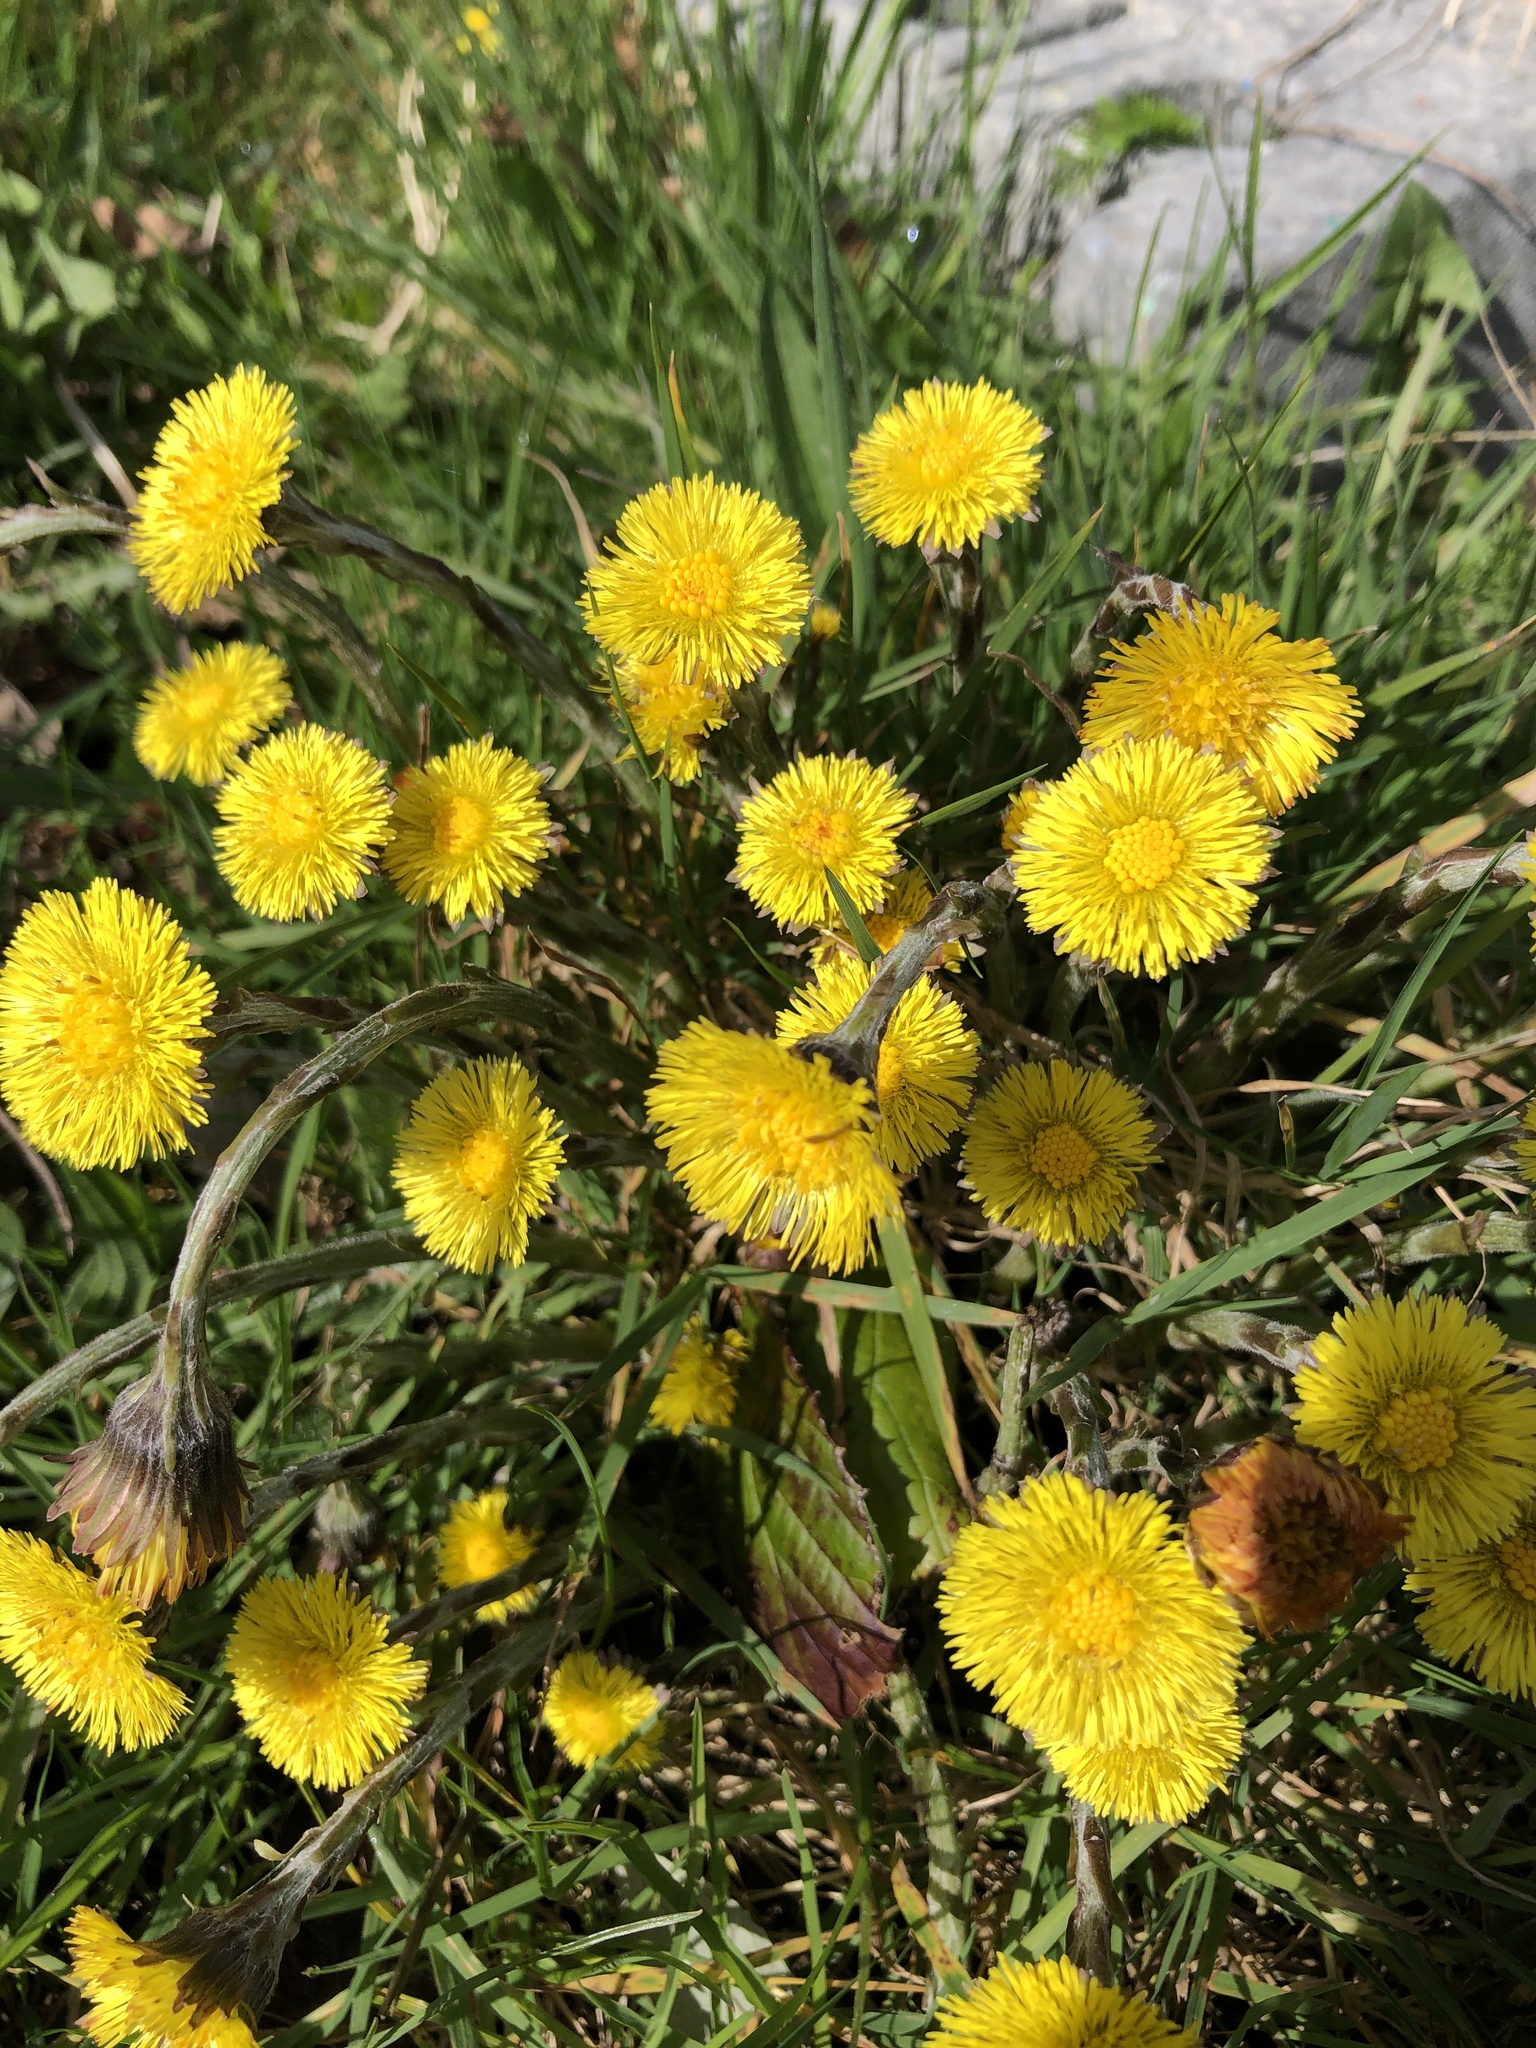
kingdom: Plantae
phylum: Tracheophyta
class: Magnoliopsida
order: Asterales
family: Asteraceae
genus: Tussilago
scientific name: Tussilago farfara
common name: Coltsfoot
